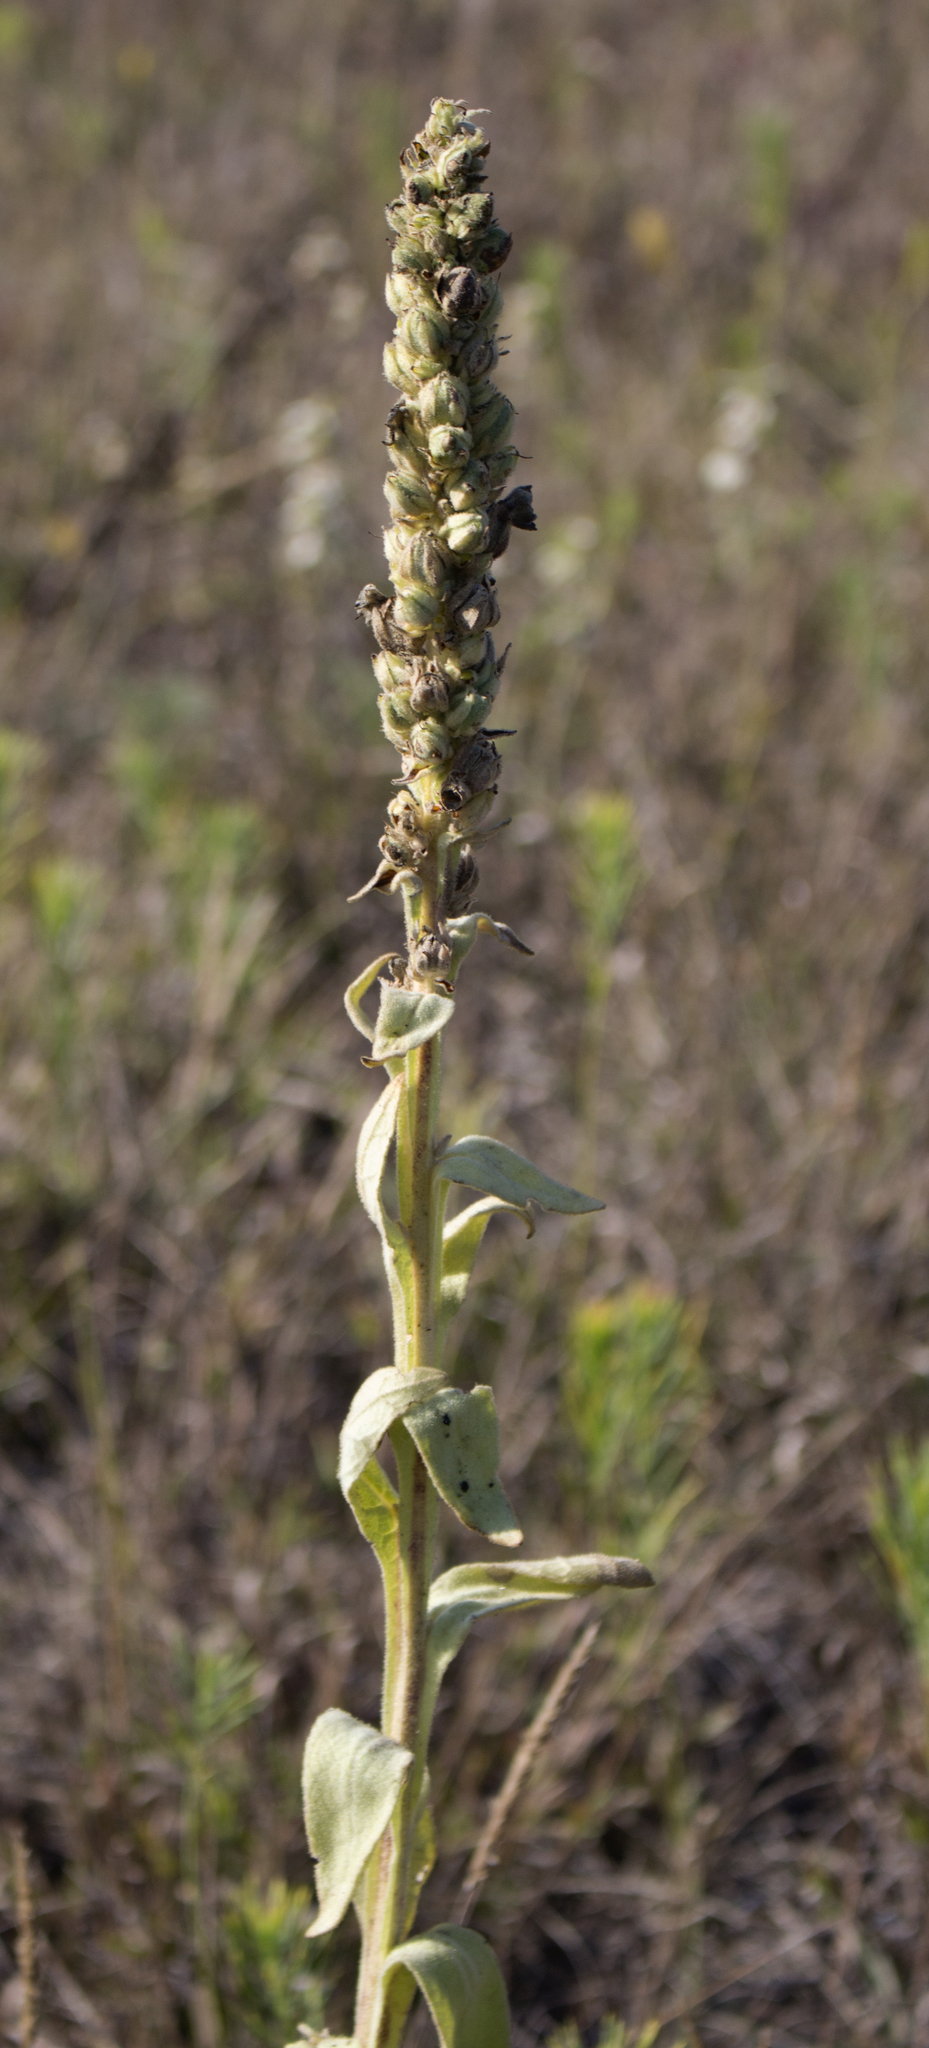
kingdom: Plantae
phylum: Tracheophyta
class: Magnoliopsida
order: Lamiales
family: Scrophulariaceae
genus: Verbascum
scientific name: Verbascum thapsus
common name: Common mullein
